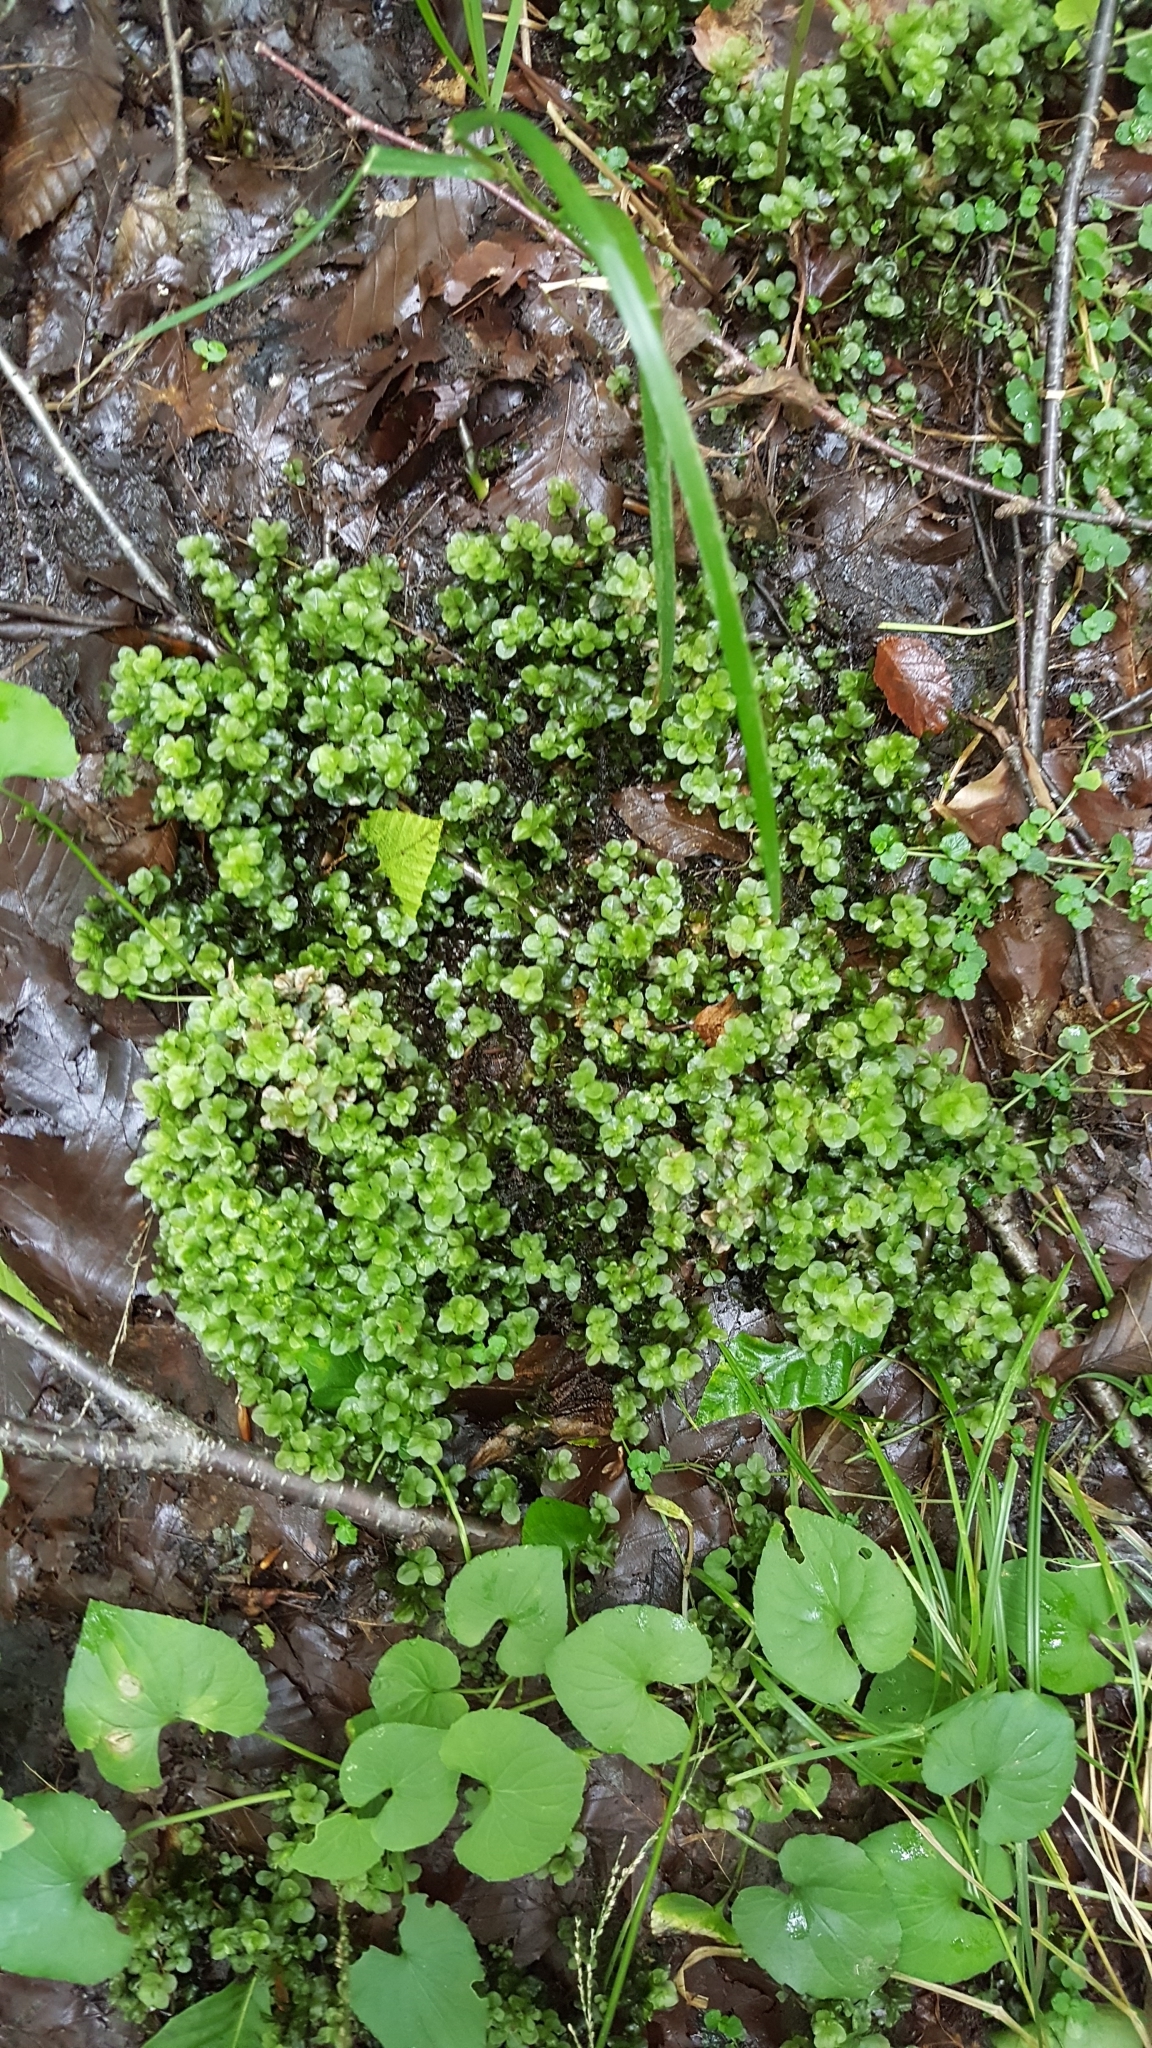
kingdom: Plantae
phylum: Bryophyta
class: Bryopsida
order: Bryales
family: Mniaceae
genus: Rhizomnium
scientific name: Rhizomnium punctatum
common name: Dotted leafy moss
